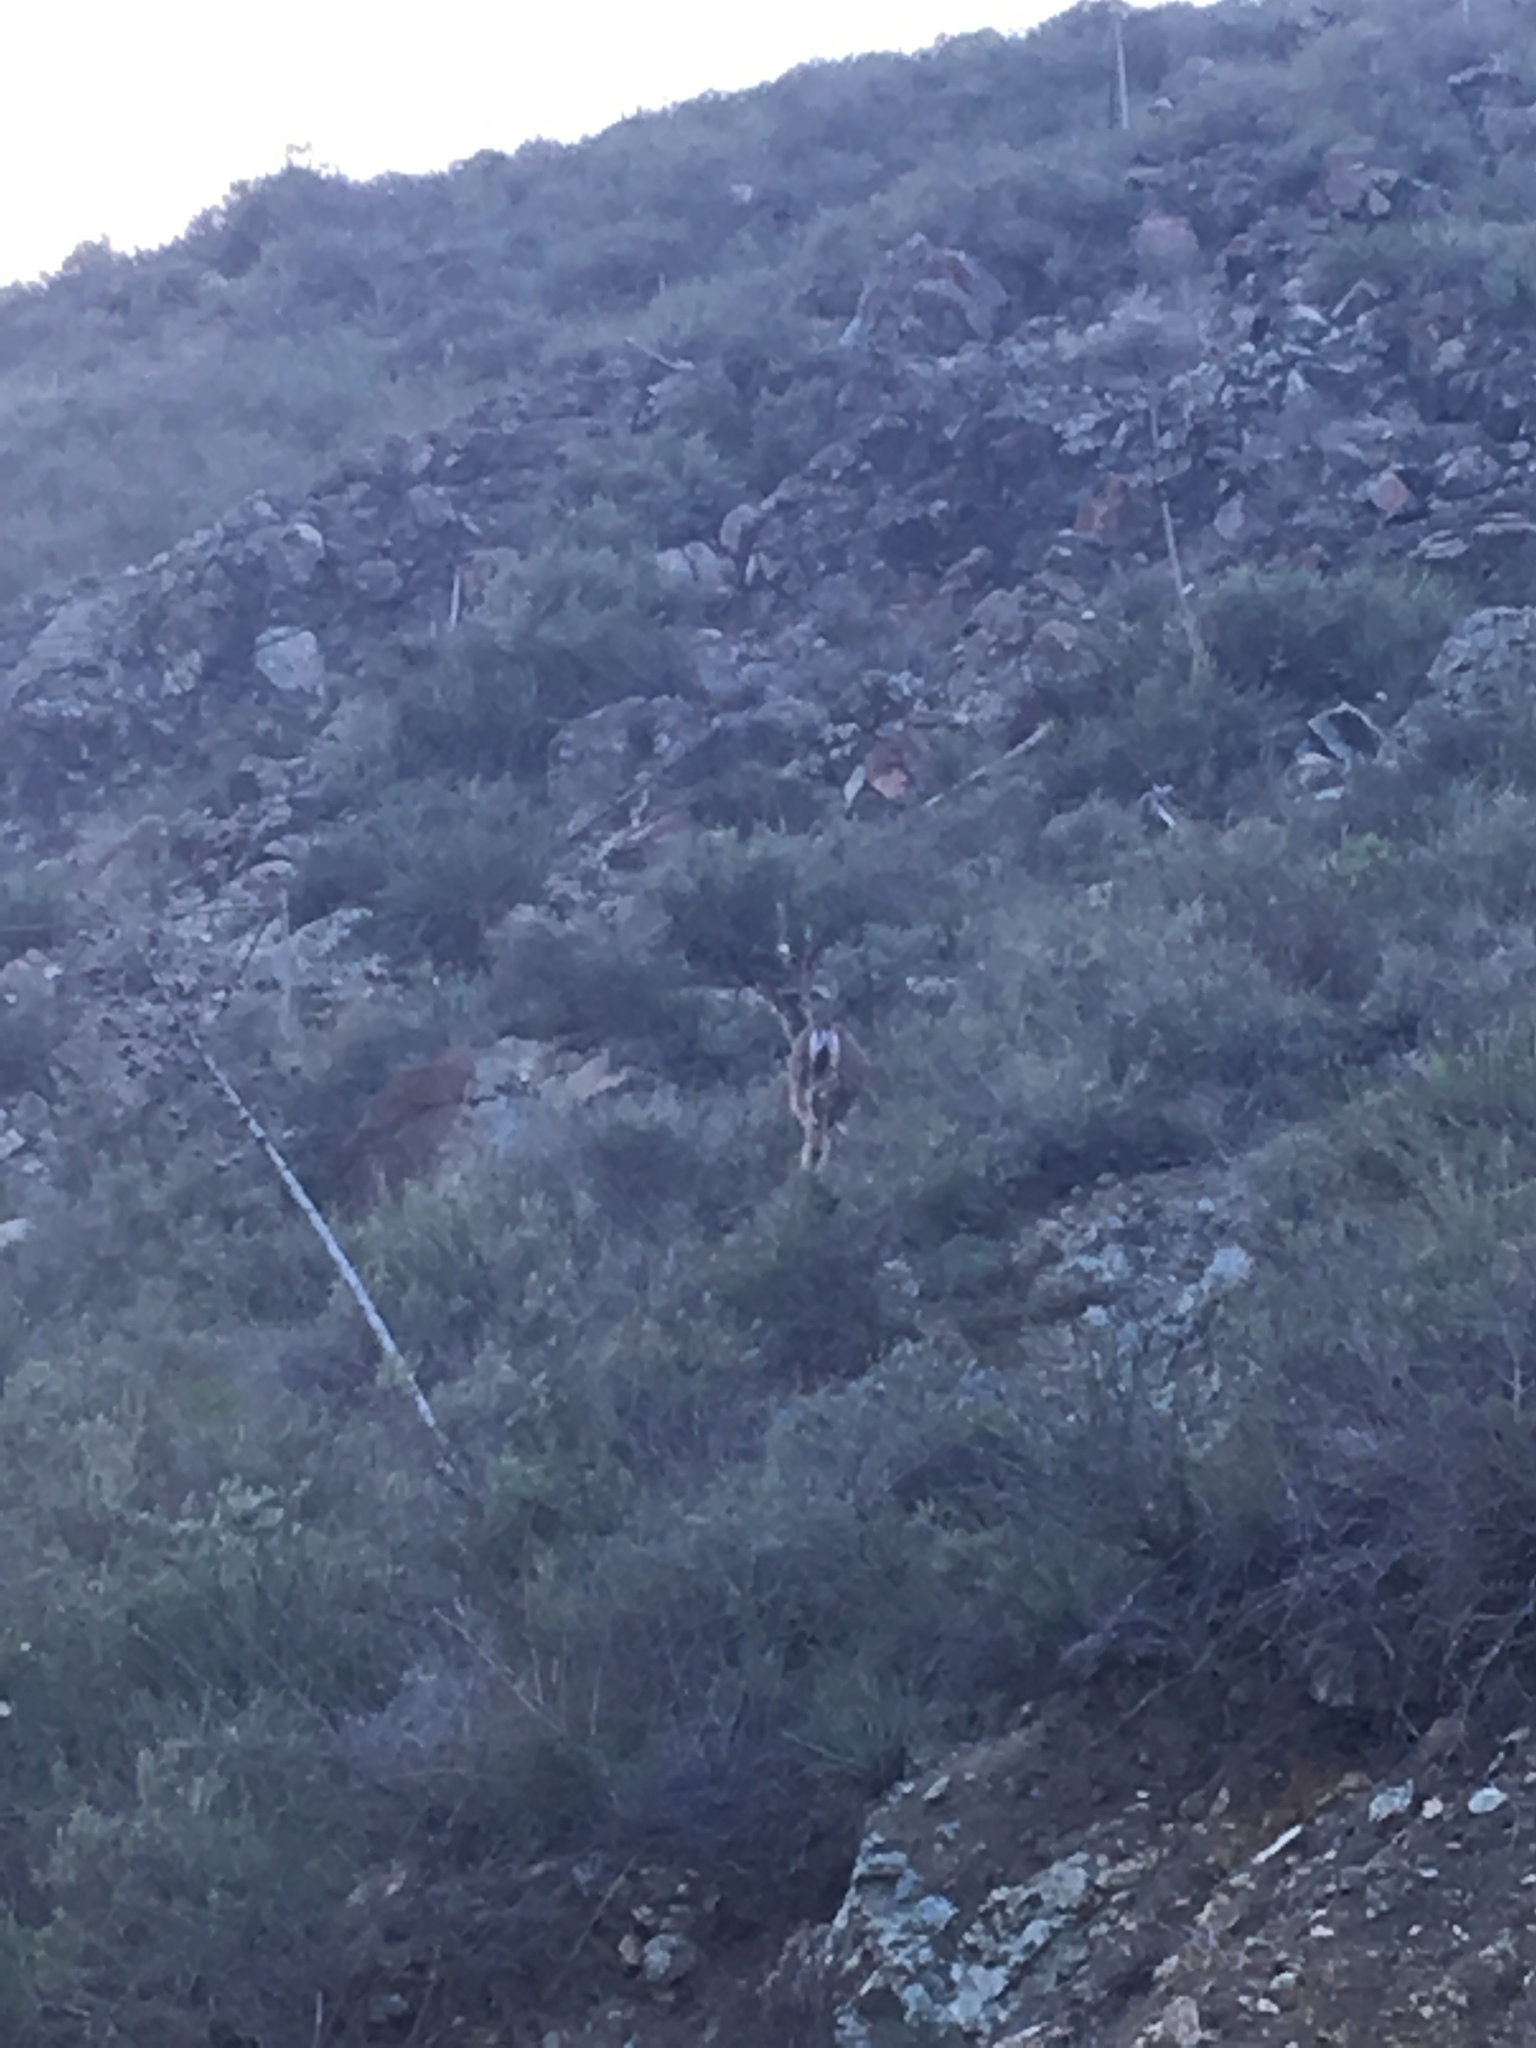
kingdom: Animalia
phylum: Chordata
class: Mammalia
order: Artiodactyla
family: Cervidae
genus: Odocoileus
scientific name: Odocoileus hemionus
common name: Mule deer
